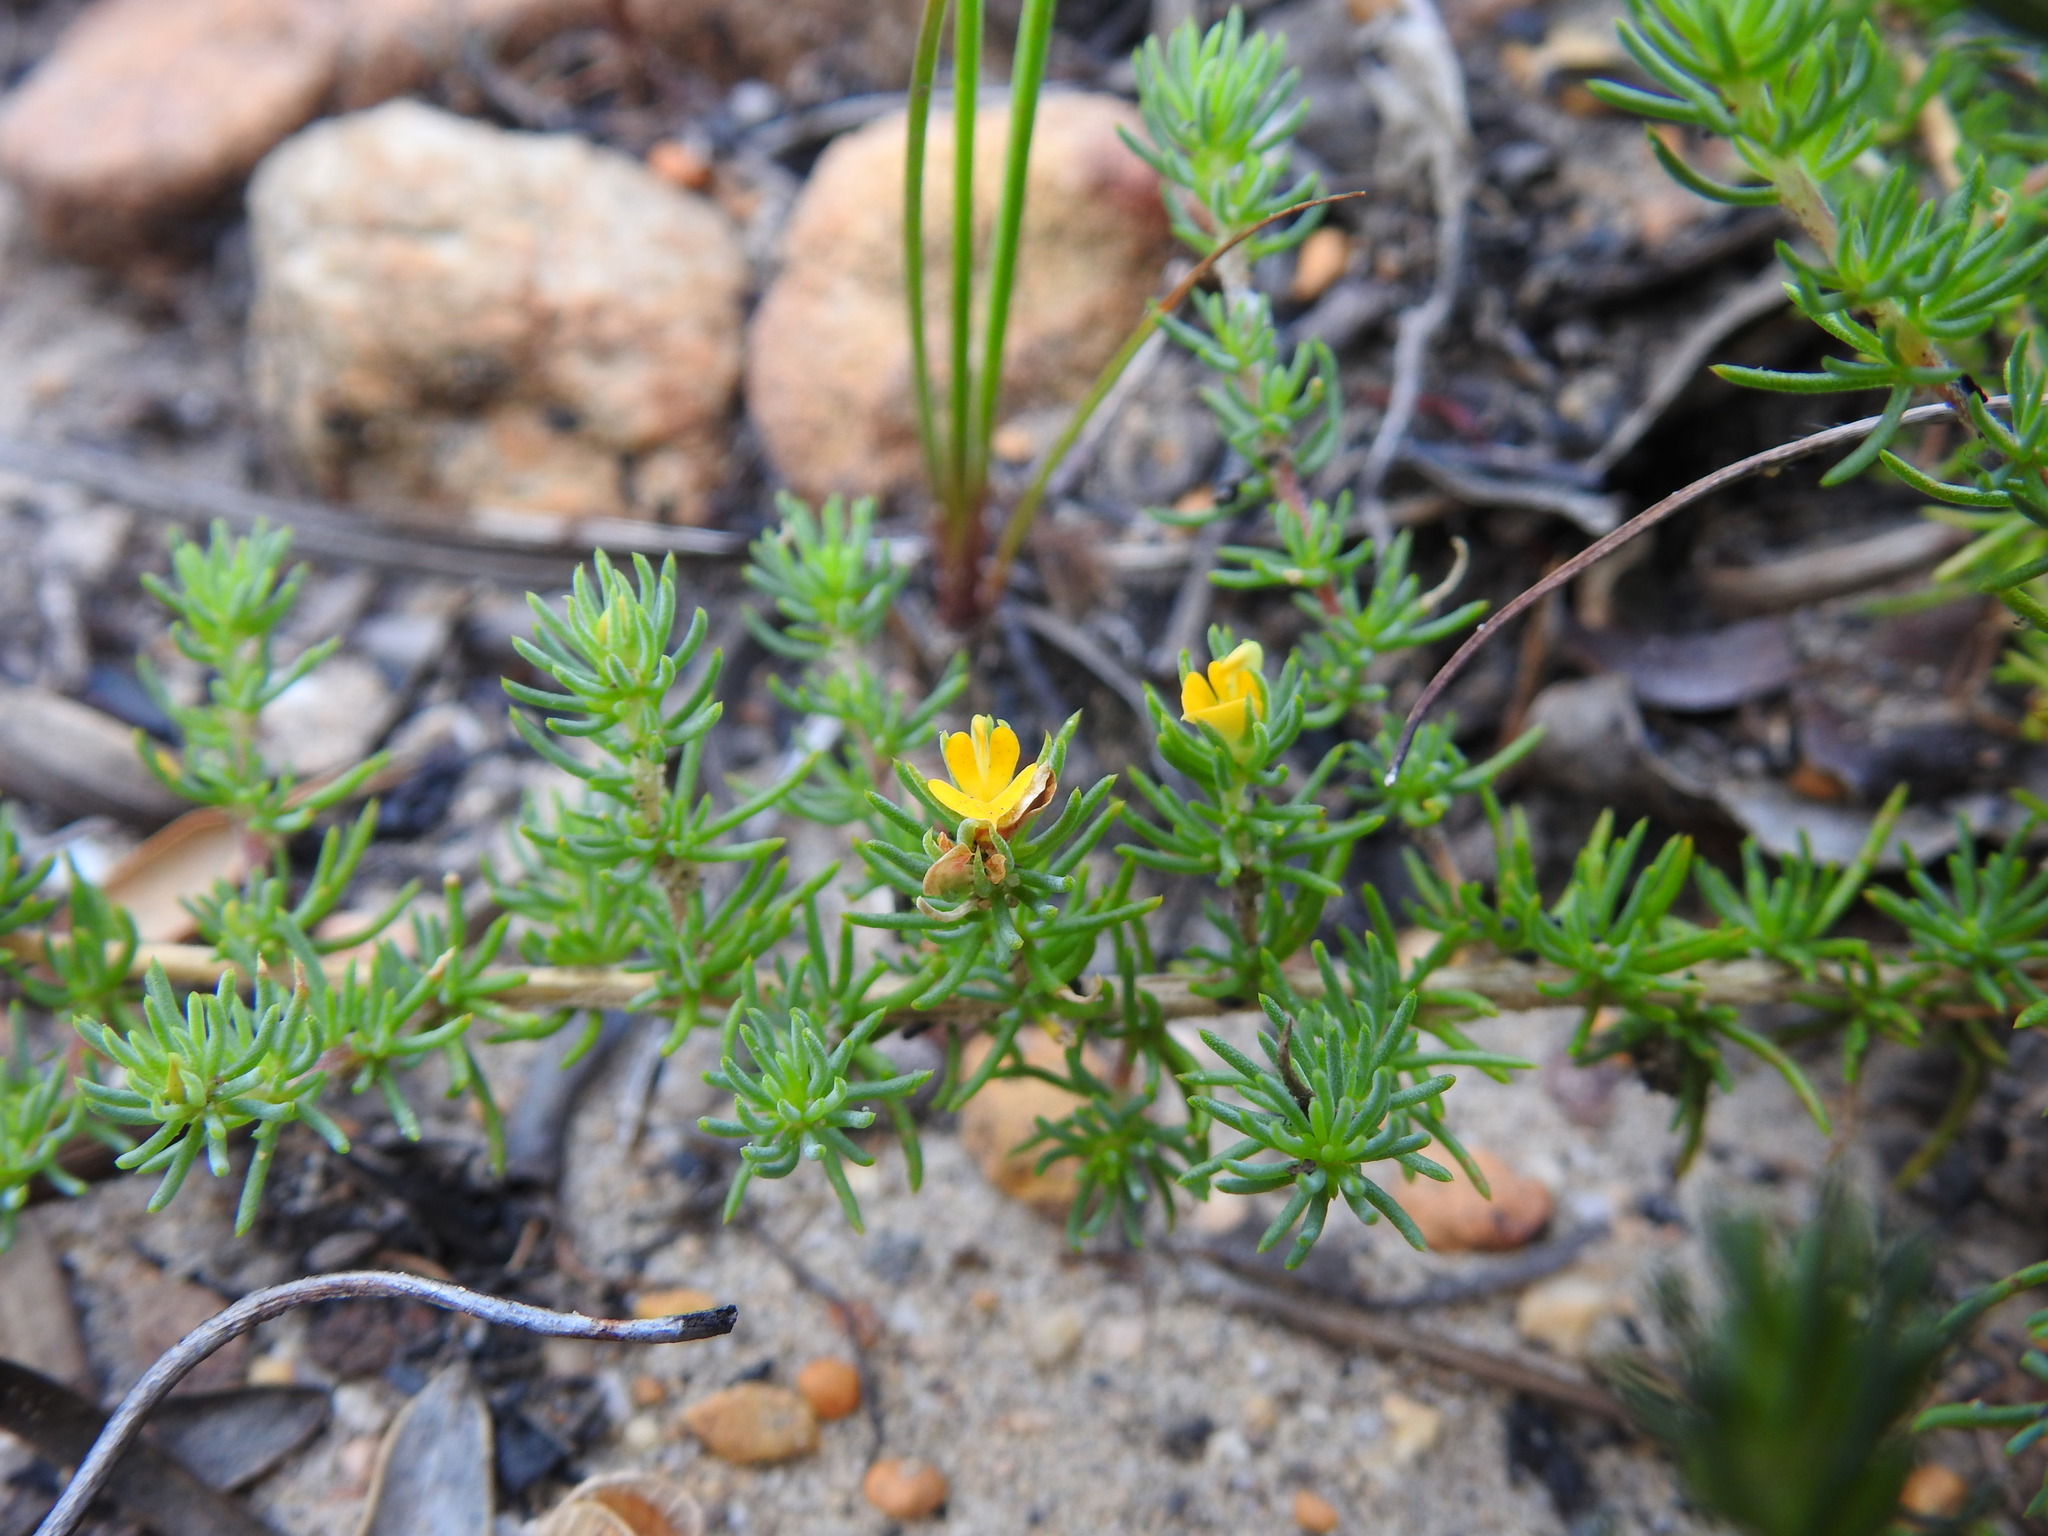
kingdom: Plantae
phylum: Tracheophyta
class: Magnoliopsida
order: Fabales
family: Fabaceae
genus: Aspalathus
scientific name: Aspalathus juniperina
